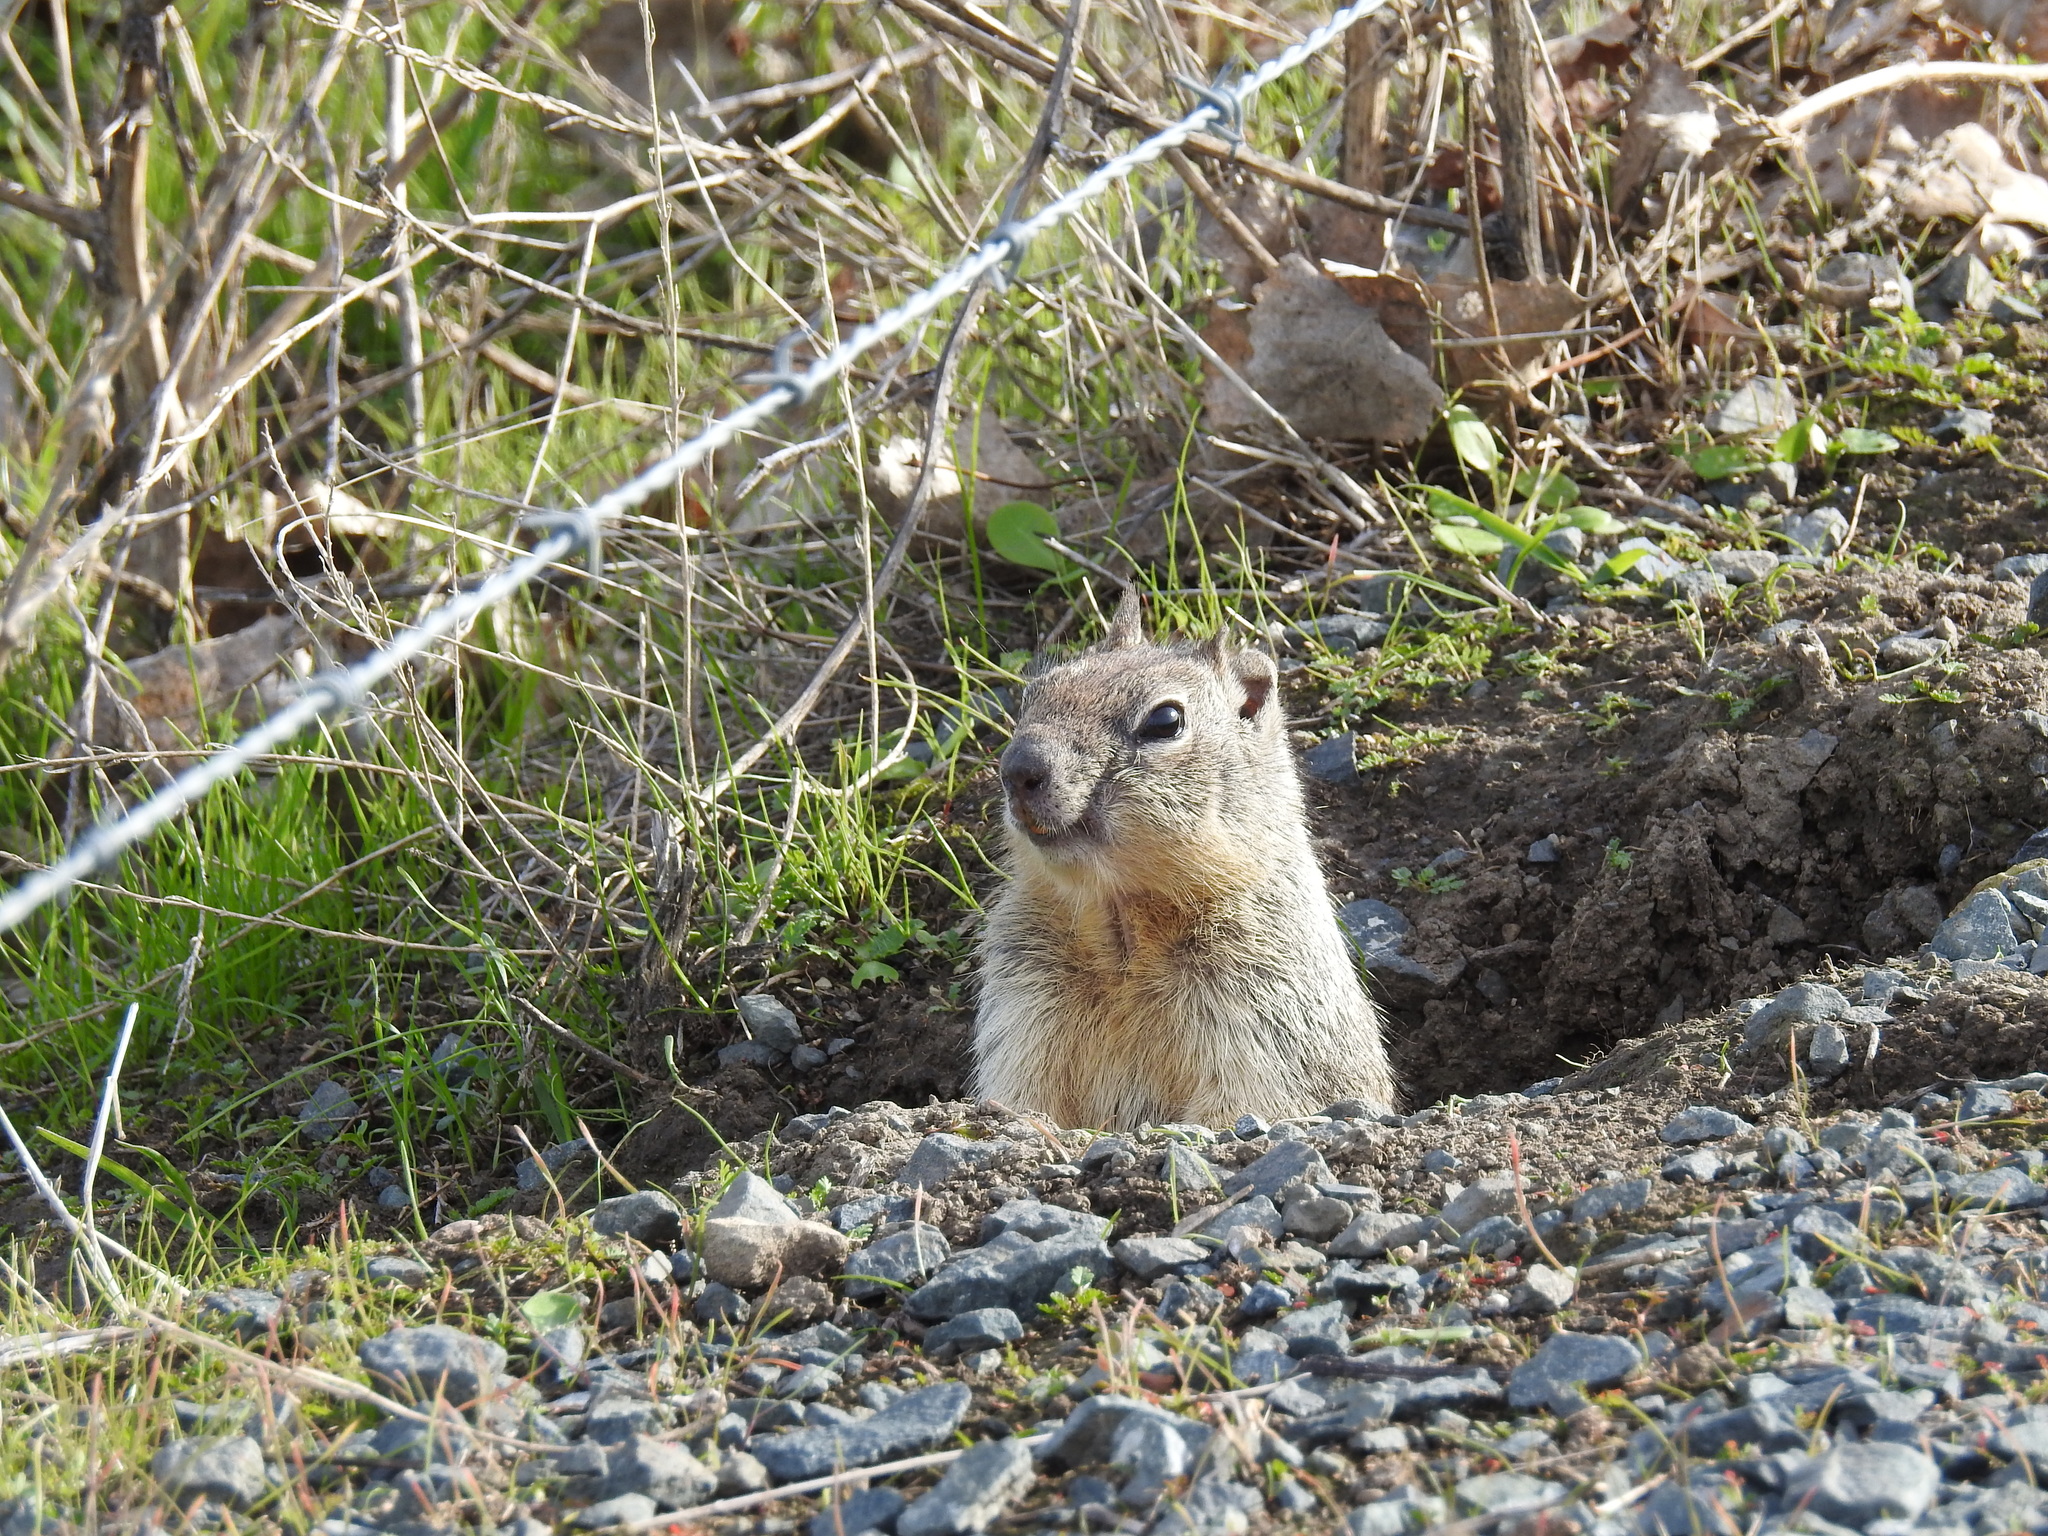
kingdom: Animalia
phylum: Chordata
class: Mammalia
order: Rodentia
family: Sciuridae
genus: Otospermophilus
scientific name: Otospermophilus beecheyi
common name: California ground squirrel
